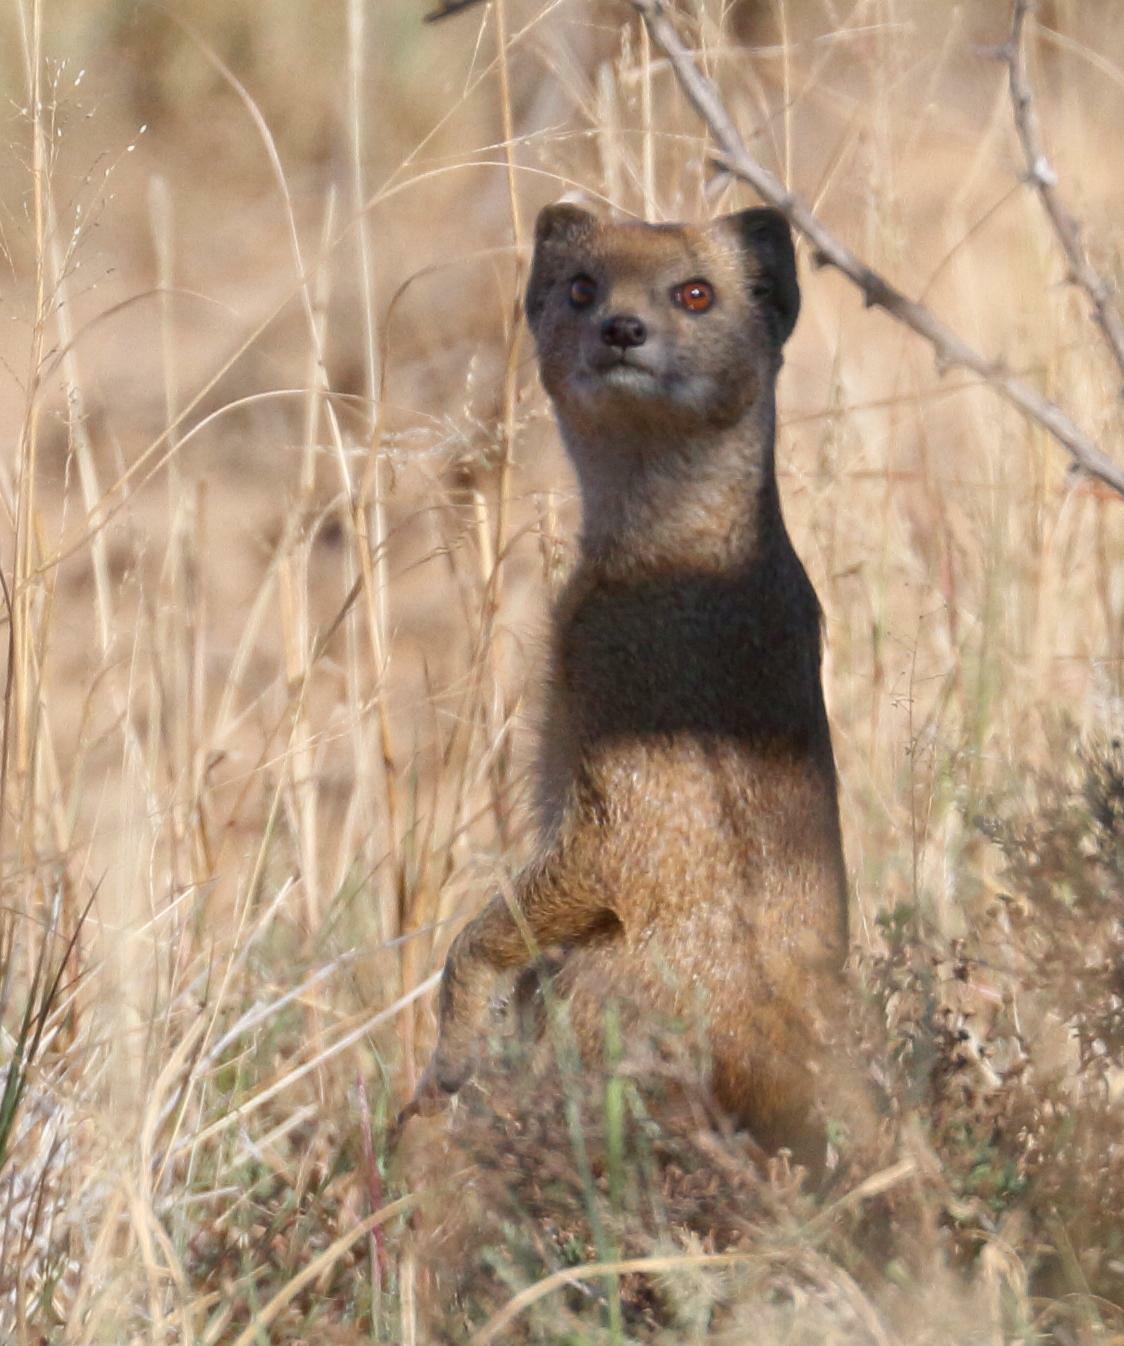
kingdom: Animalia
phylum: Chordata
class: Mammalia
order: Carnivora
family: Herpestidae
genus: Cynictis
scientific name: Cynictis penicillata
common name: Yellow mongoose
